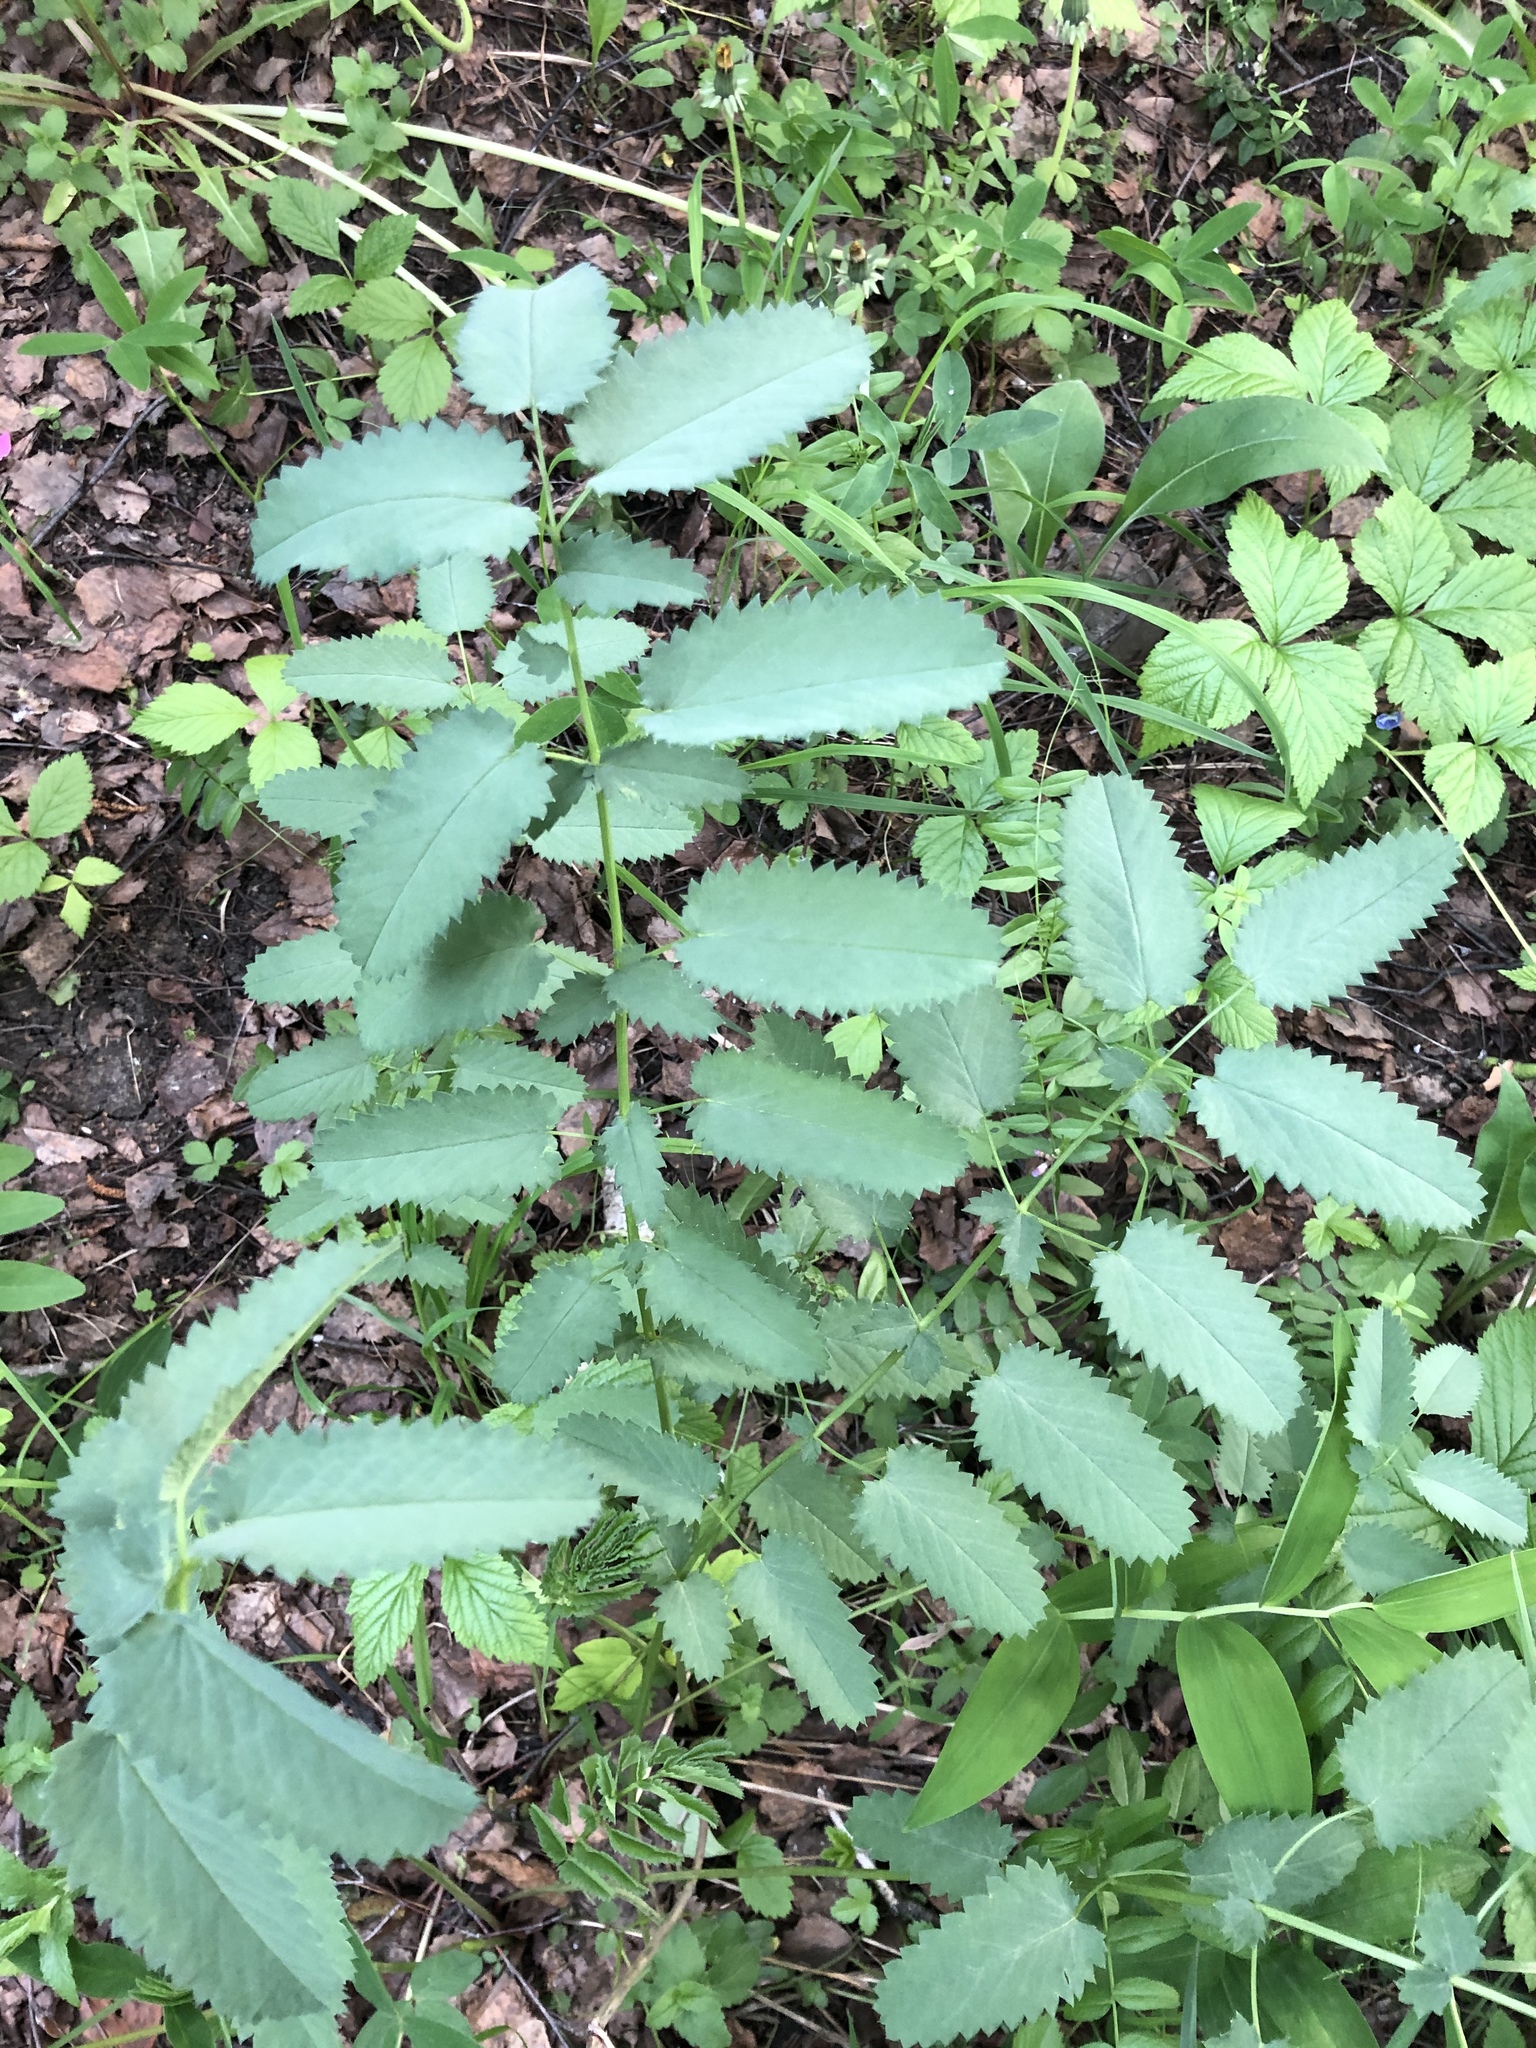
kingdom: Plantae
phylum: Tracheophyta
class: Magnoliopsida
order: Rosales
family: Rosaceae
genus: Sanguisorba
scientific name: Sanguisorba officinalis
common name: Great burnet
